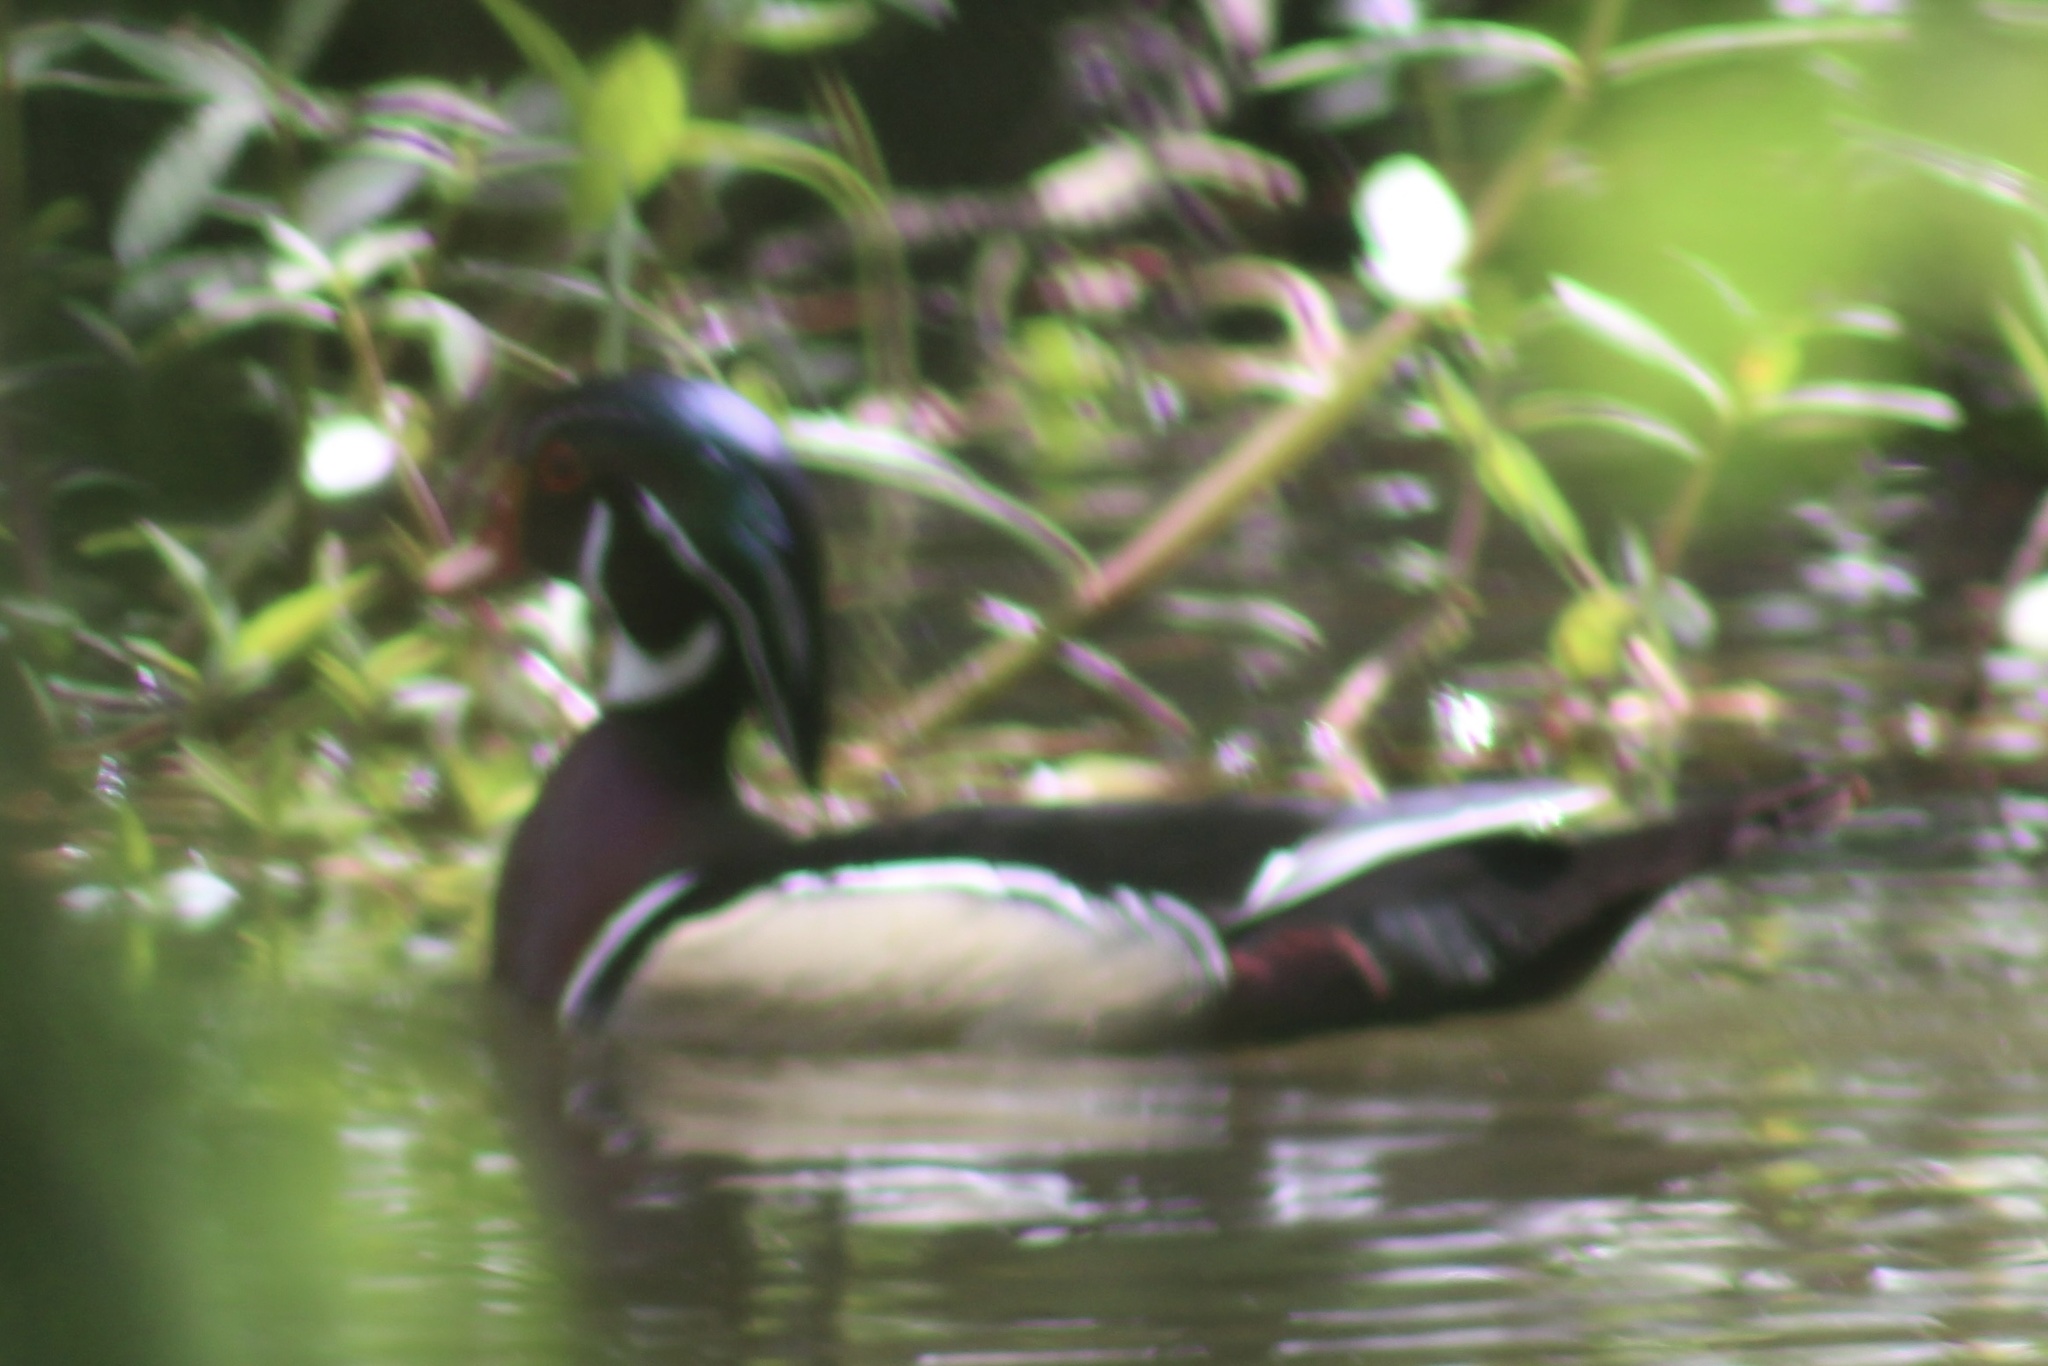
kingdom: Animalia
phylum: Chordata
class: Aves
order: Anseriformes
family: Anatidae
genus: Aix
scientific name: Aix sponsa
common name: Wood duck
